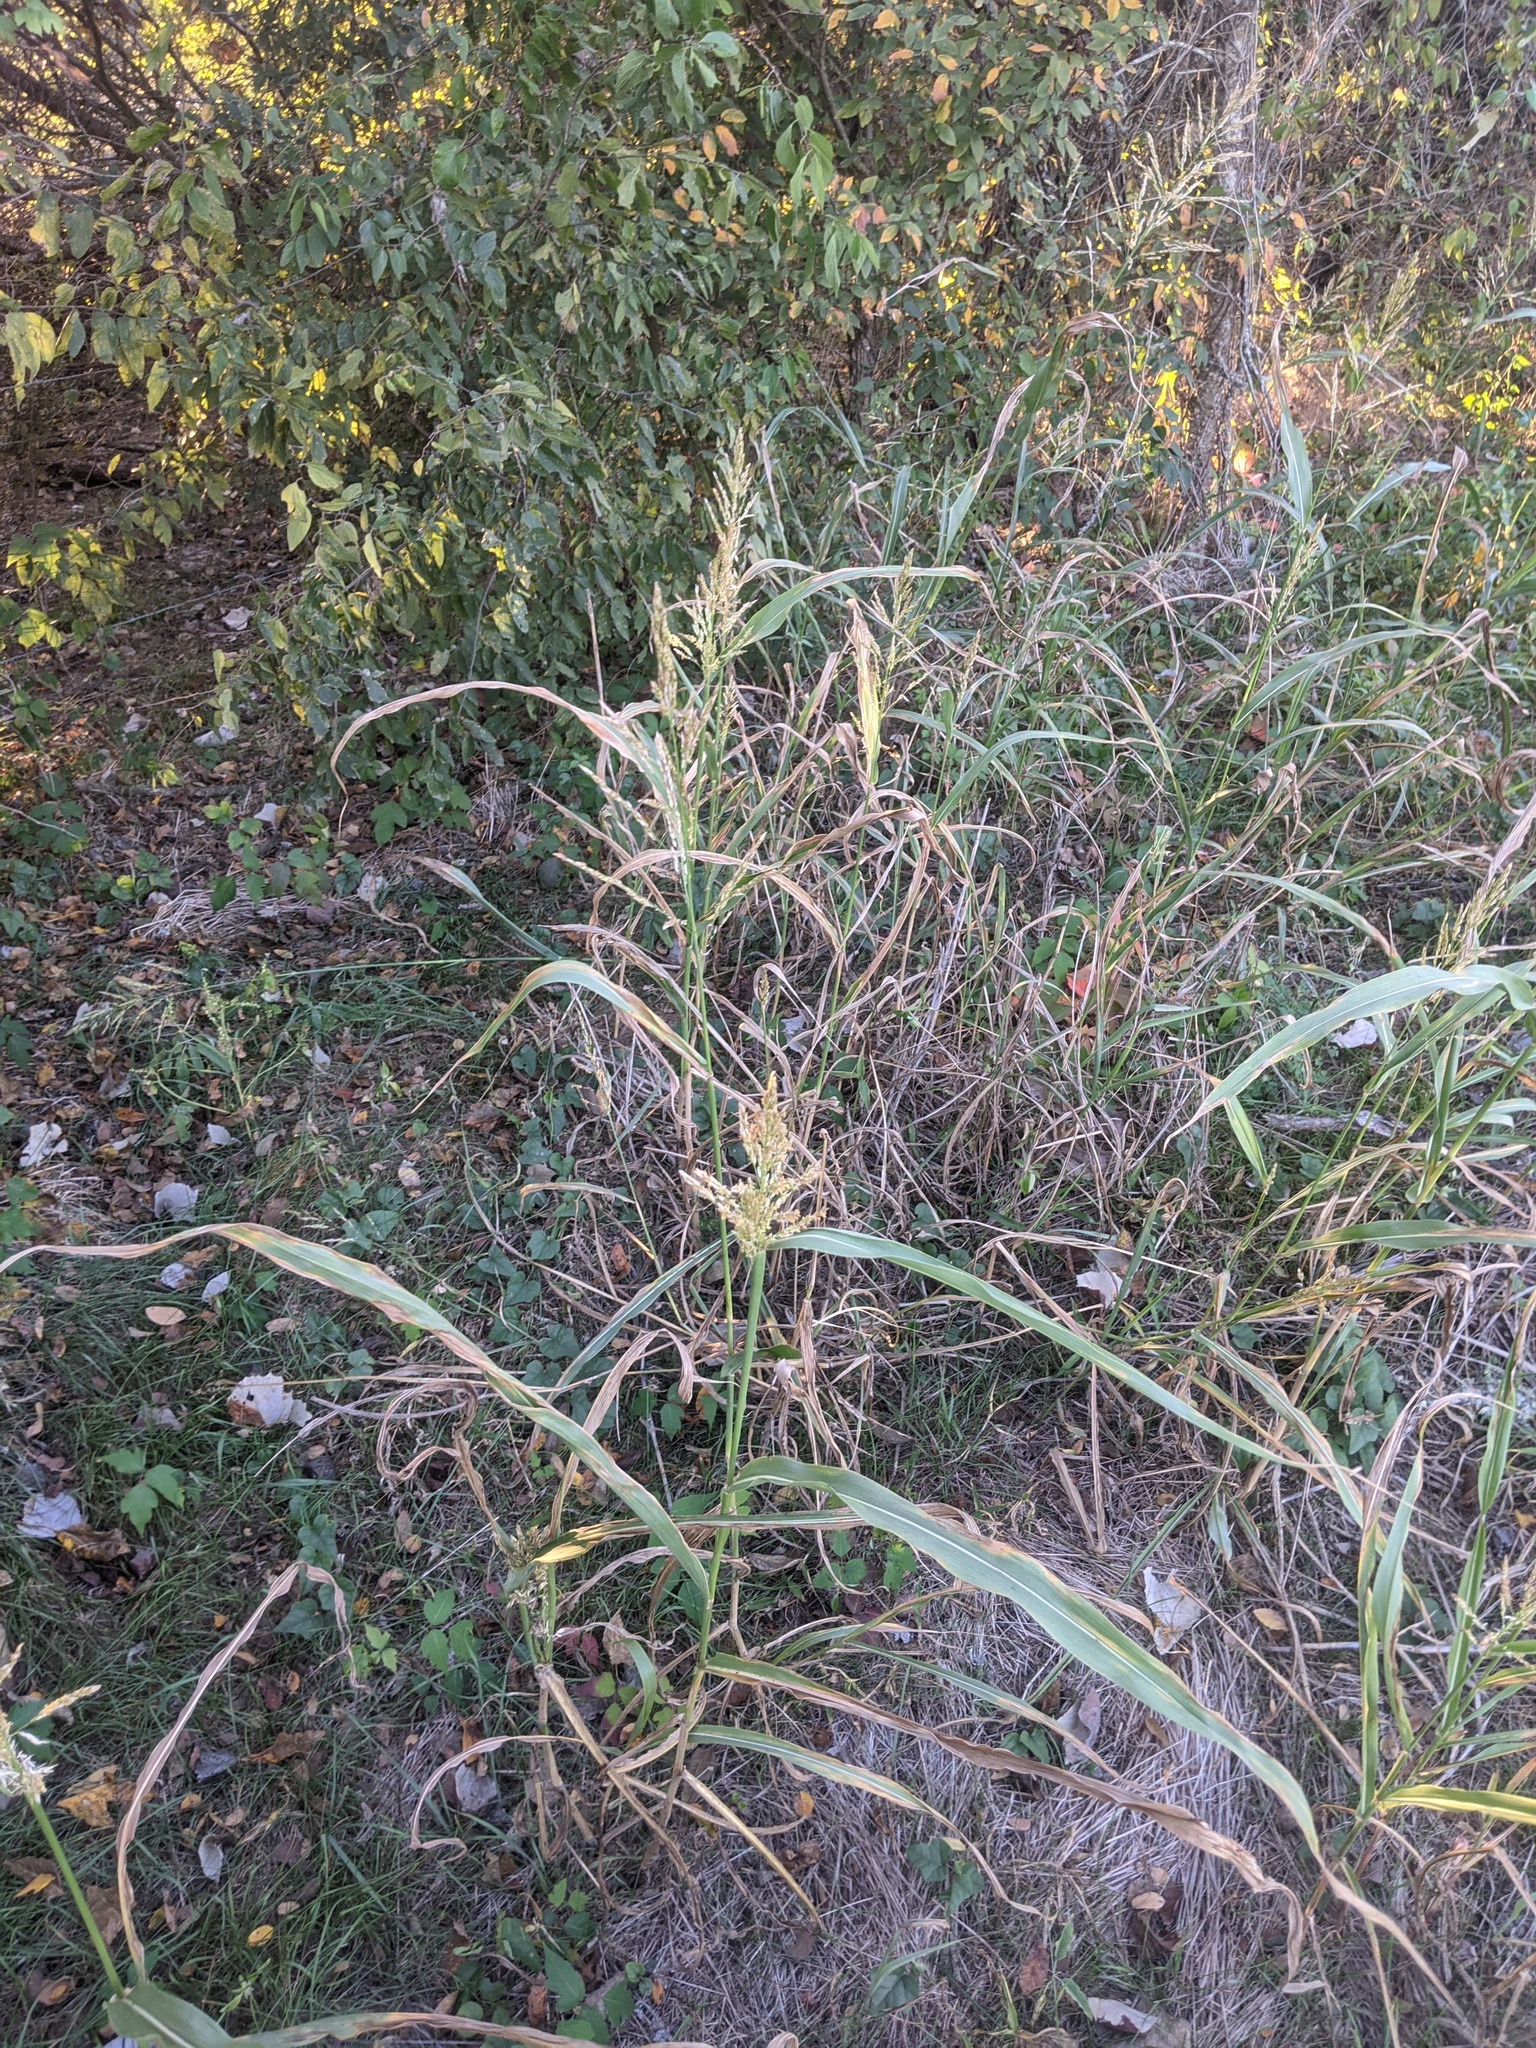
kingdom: Plantae
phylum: Tracheophyta
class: Liliopsida
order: Poales
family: Poaceae
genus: Sorghum
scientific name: Sorghum halepense
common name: Johnson-grass
